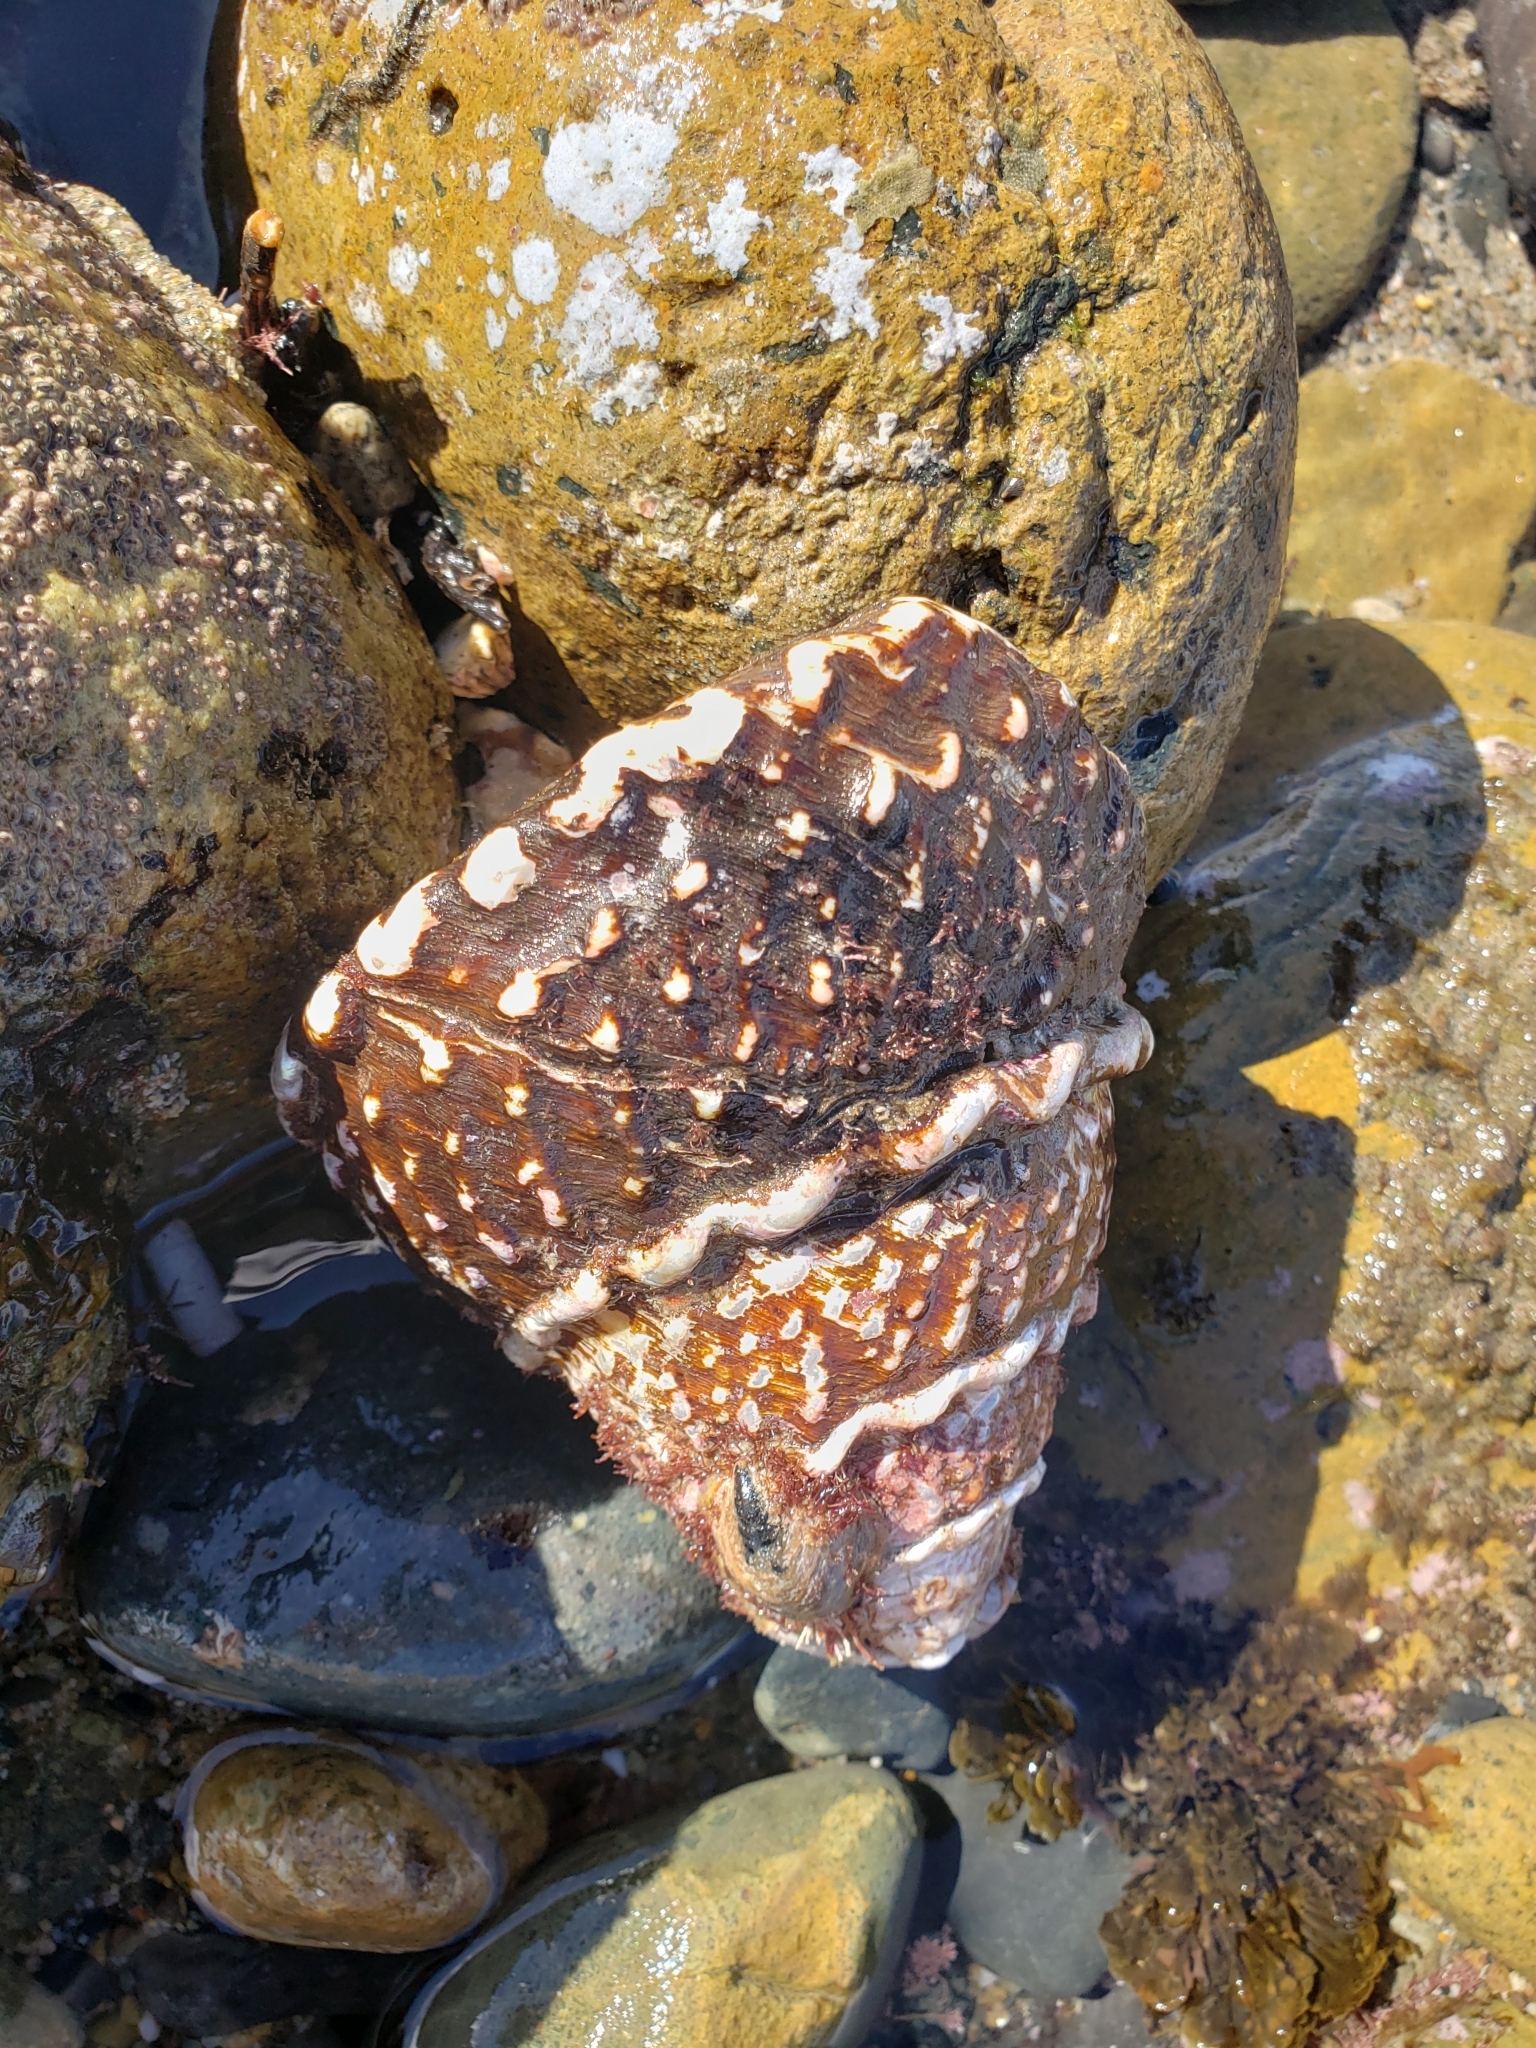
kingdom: Animalia
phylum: Mollusca
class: Gastropoda
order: Trochida
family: Turbinidae
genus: Megastraea
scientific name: Megastraea undosa
